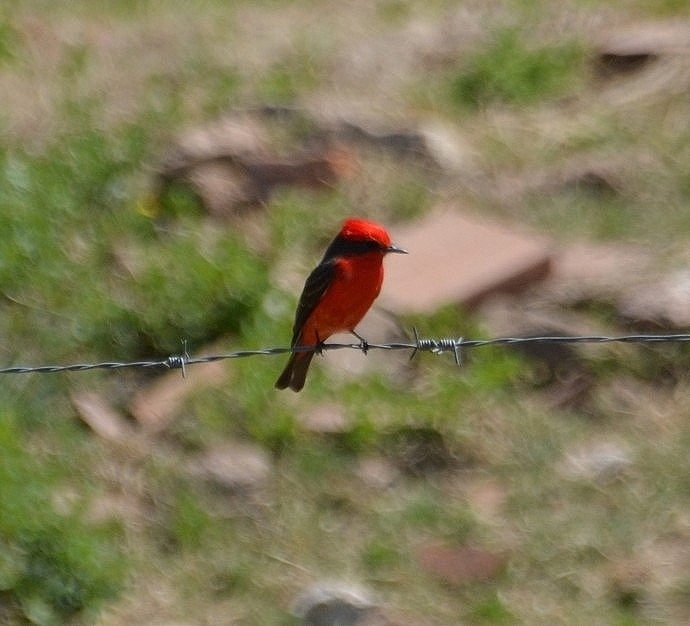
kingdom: Animalia
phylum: Chordata
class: Aves
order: Passeriformes
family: Tyrannidae
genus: Pyrocephalus
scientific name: Pyrocephalus rubinus
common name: Vermilion flycatcher
